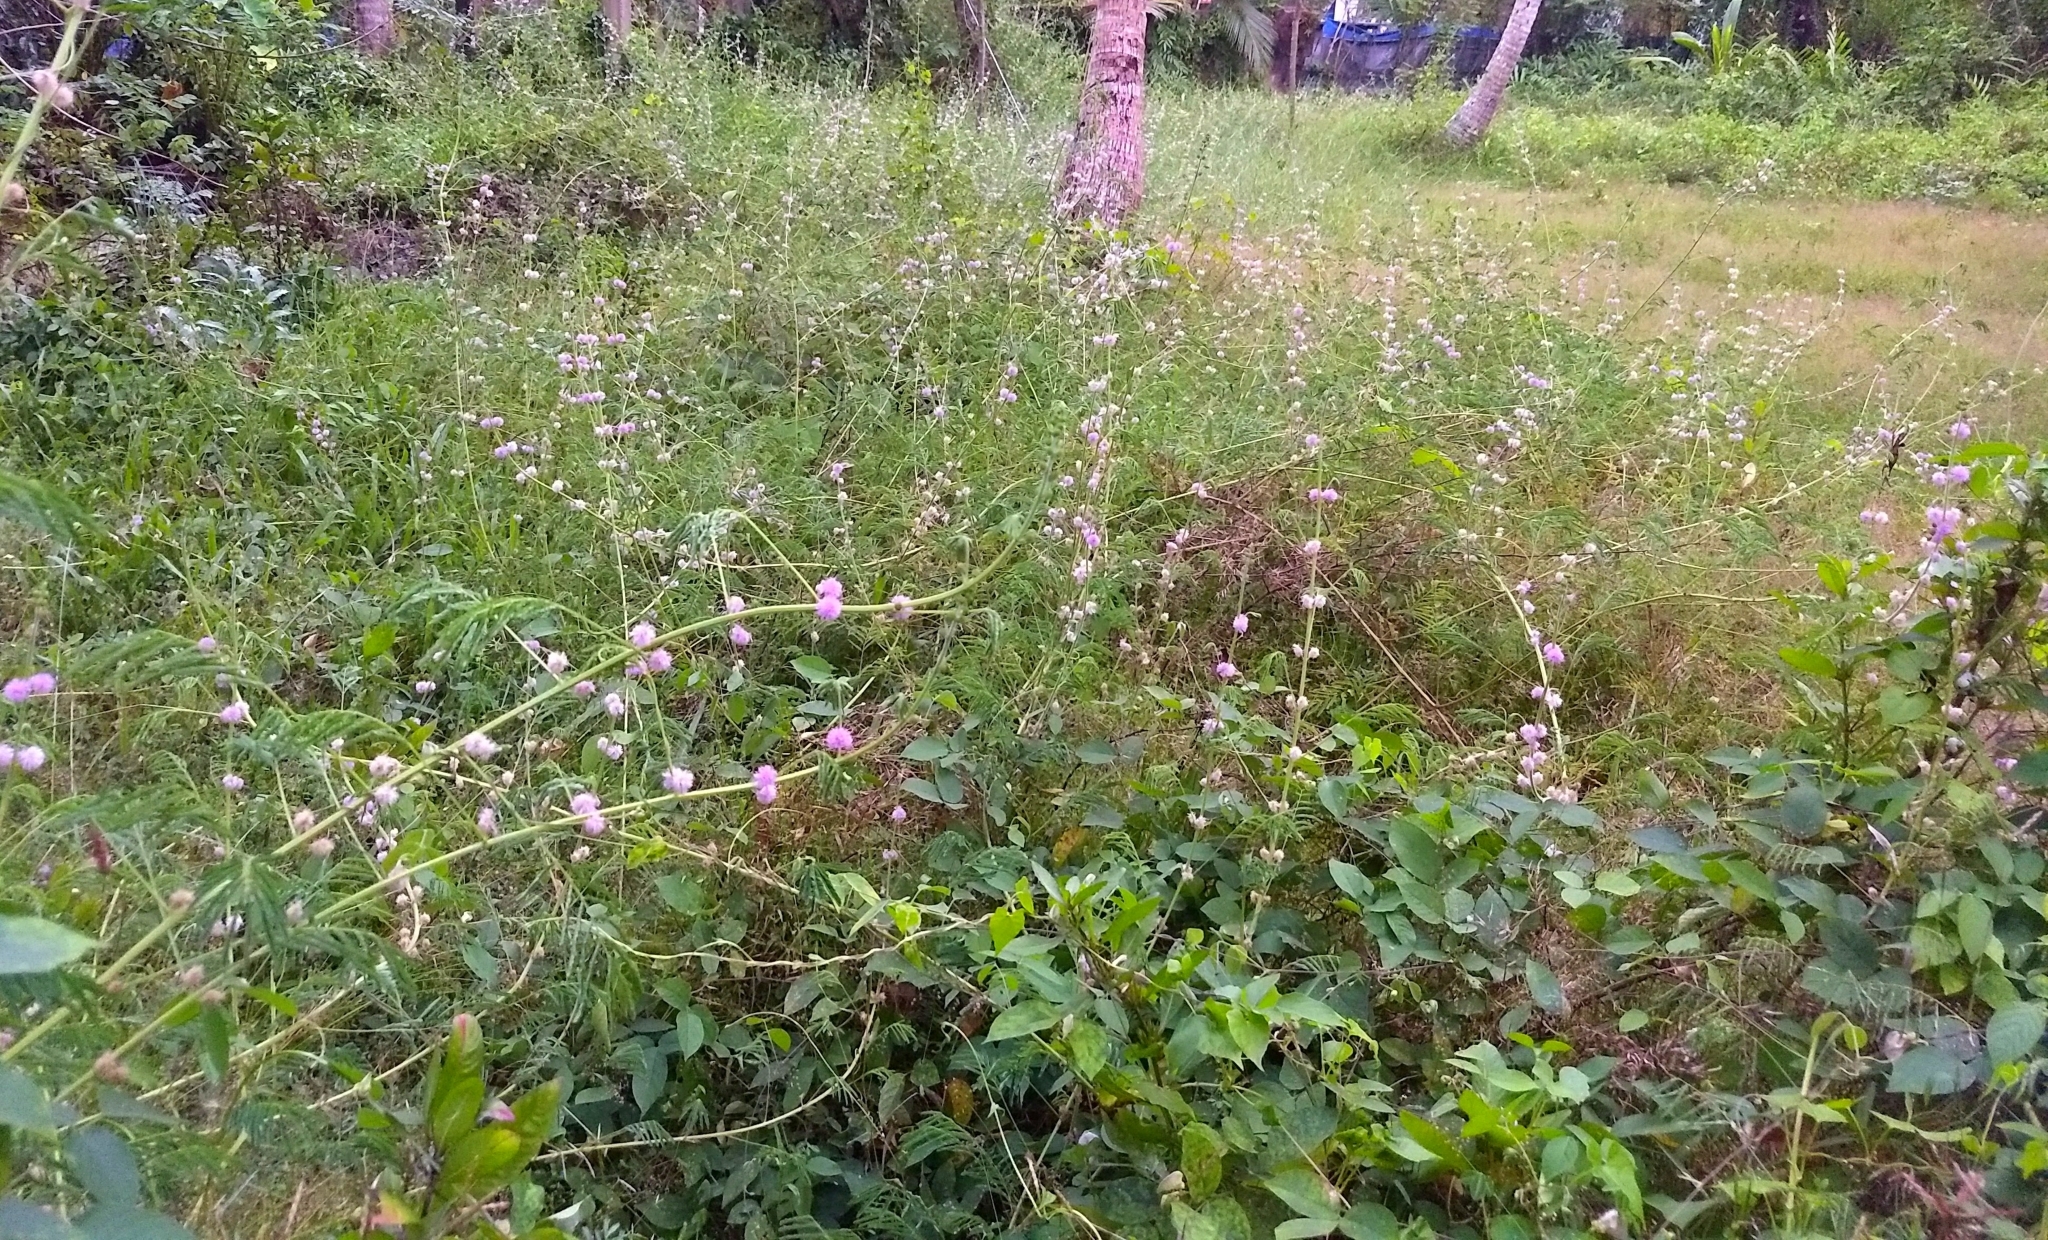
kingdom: Plantae
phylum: Tracheophyta
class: Magnoliopsida
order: Fabales
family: Fabaceae
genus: Mimosa
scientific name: Mimosa diplotricha
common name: Giant sensitive-plant
